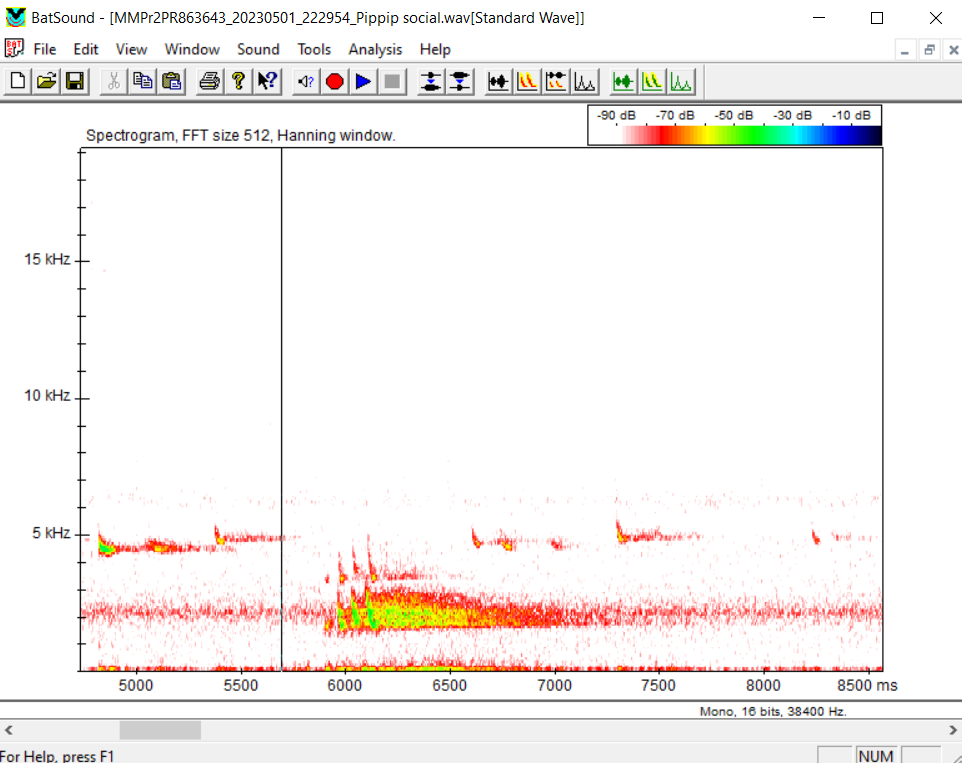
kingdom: Animalia
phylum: Chordata
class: Mammalia
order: Chiroptera
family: Vespertilionidae
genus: Pipistrellus
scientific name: Pipistrellus pipistrellus
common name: Common pipistrelle
